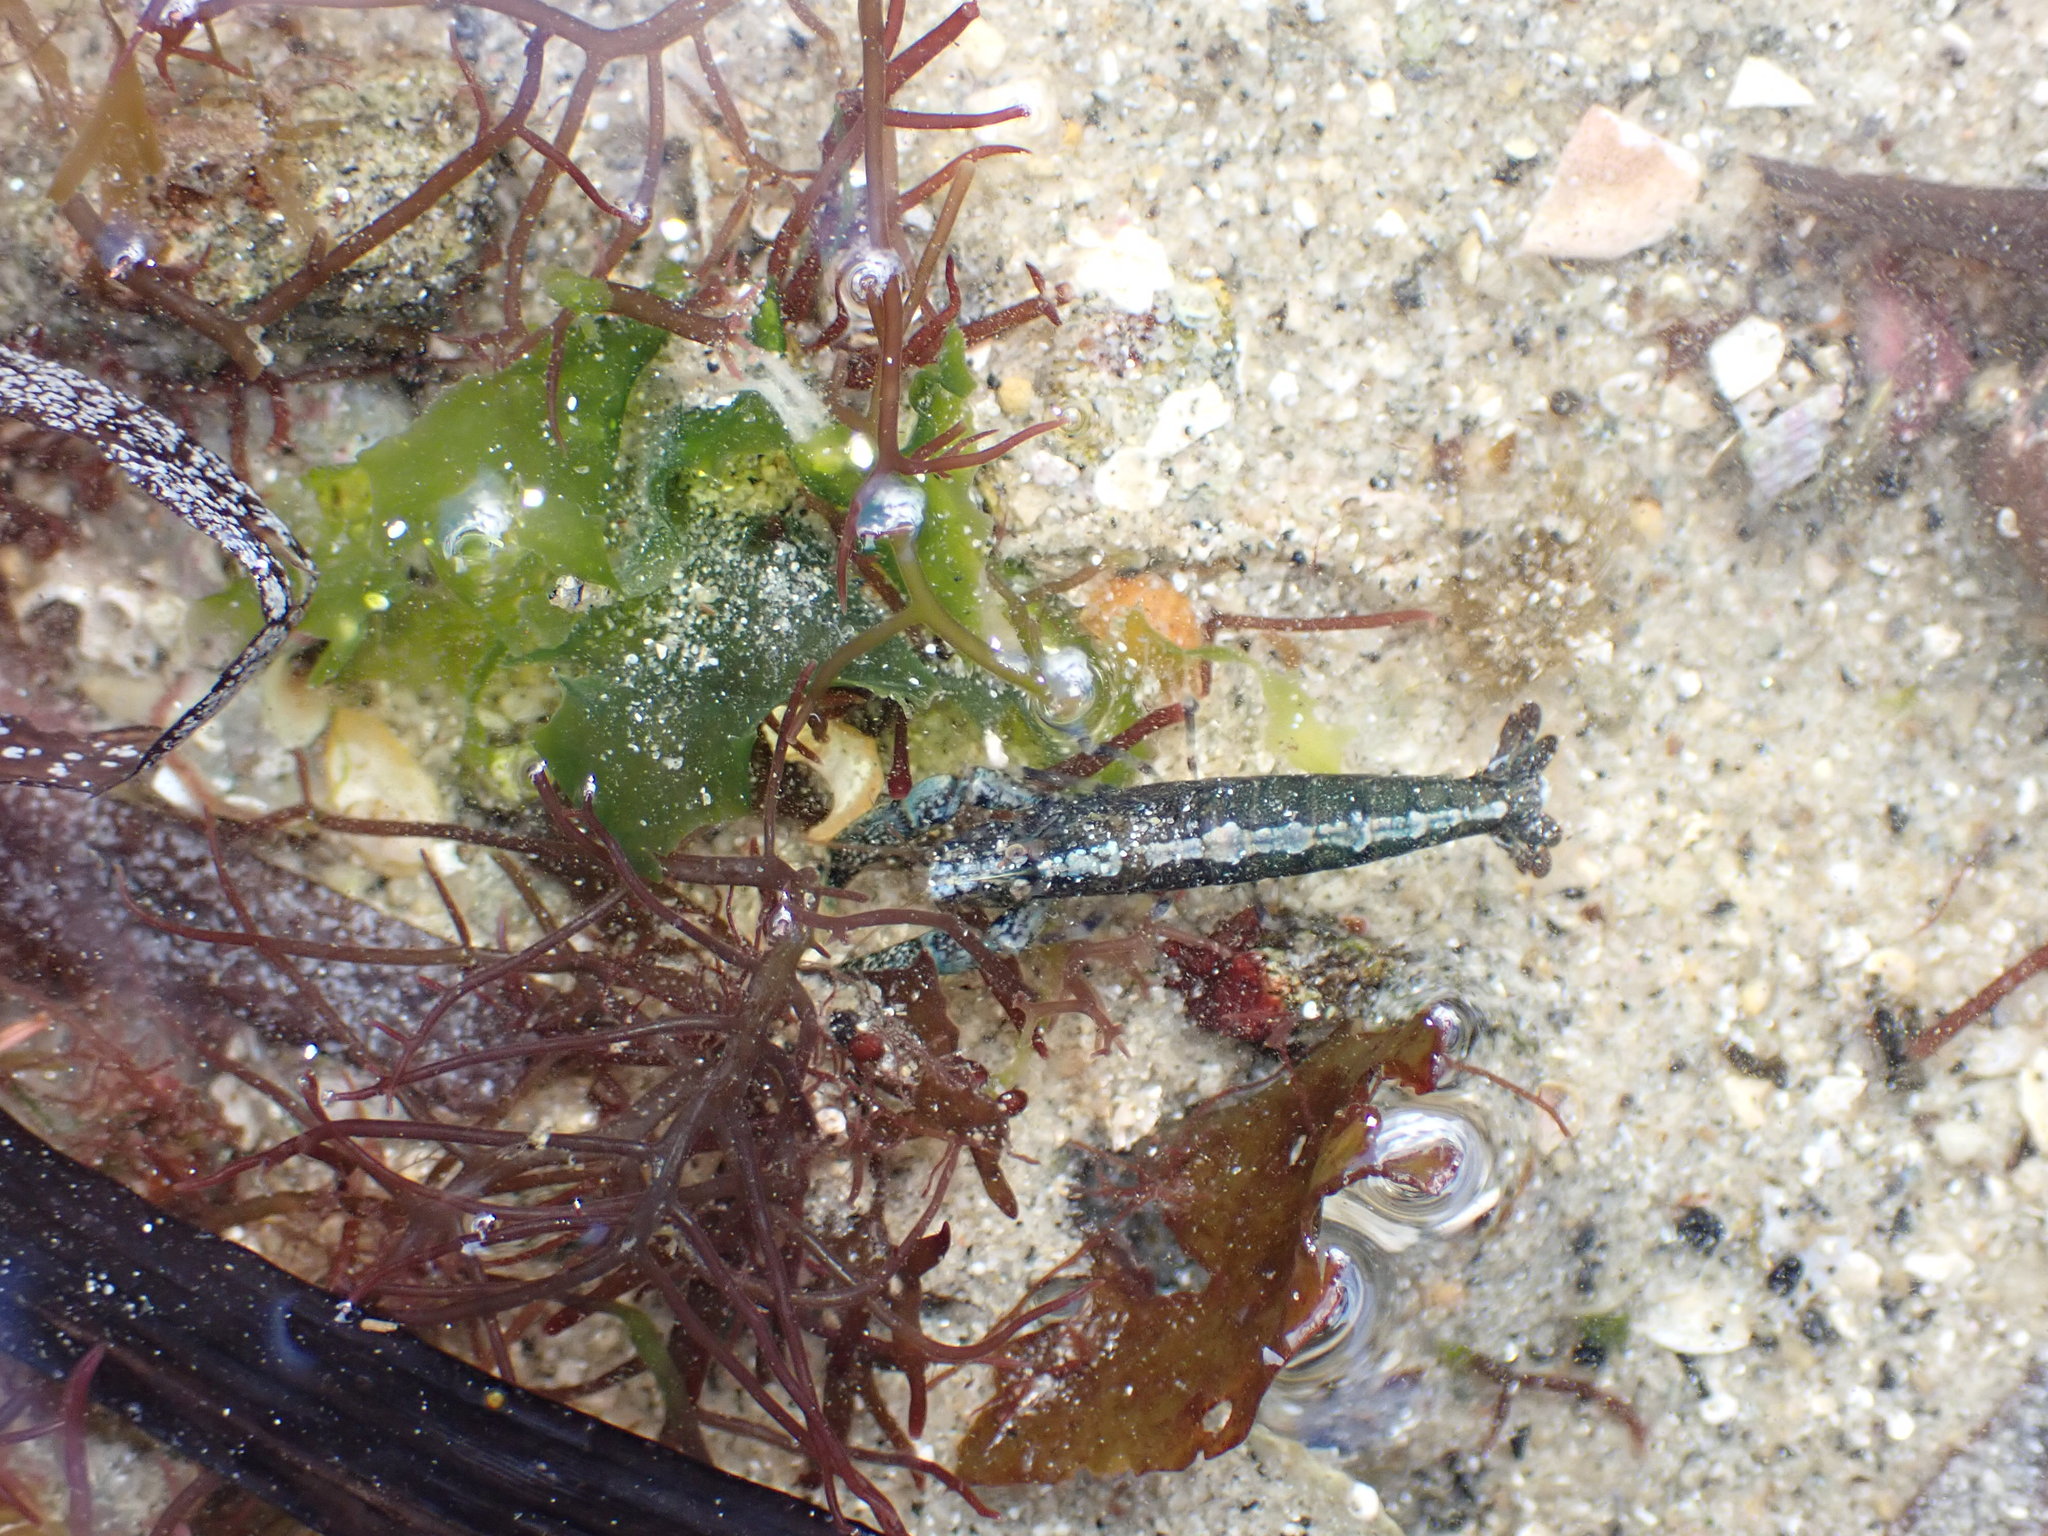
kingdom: Animalia
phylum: Arthropoda
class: Malacostraca
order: Decapoda
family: Alpheidae
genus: Athanas
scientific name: Athanas nitescens
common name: Hooded shrimp
